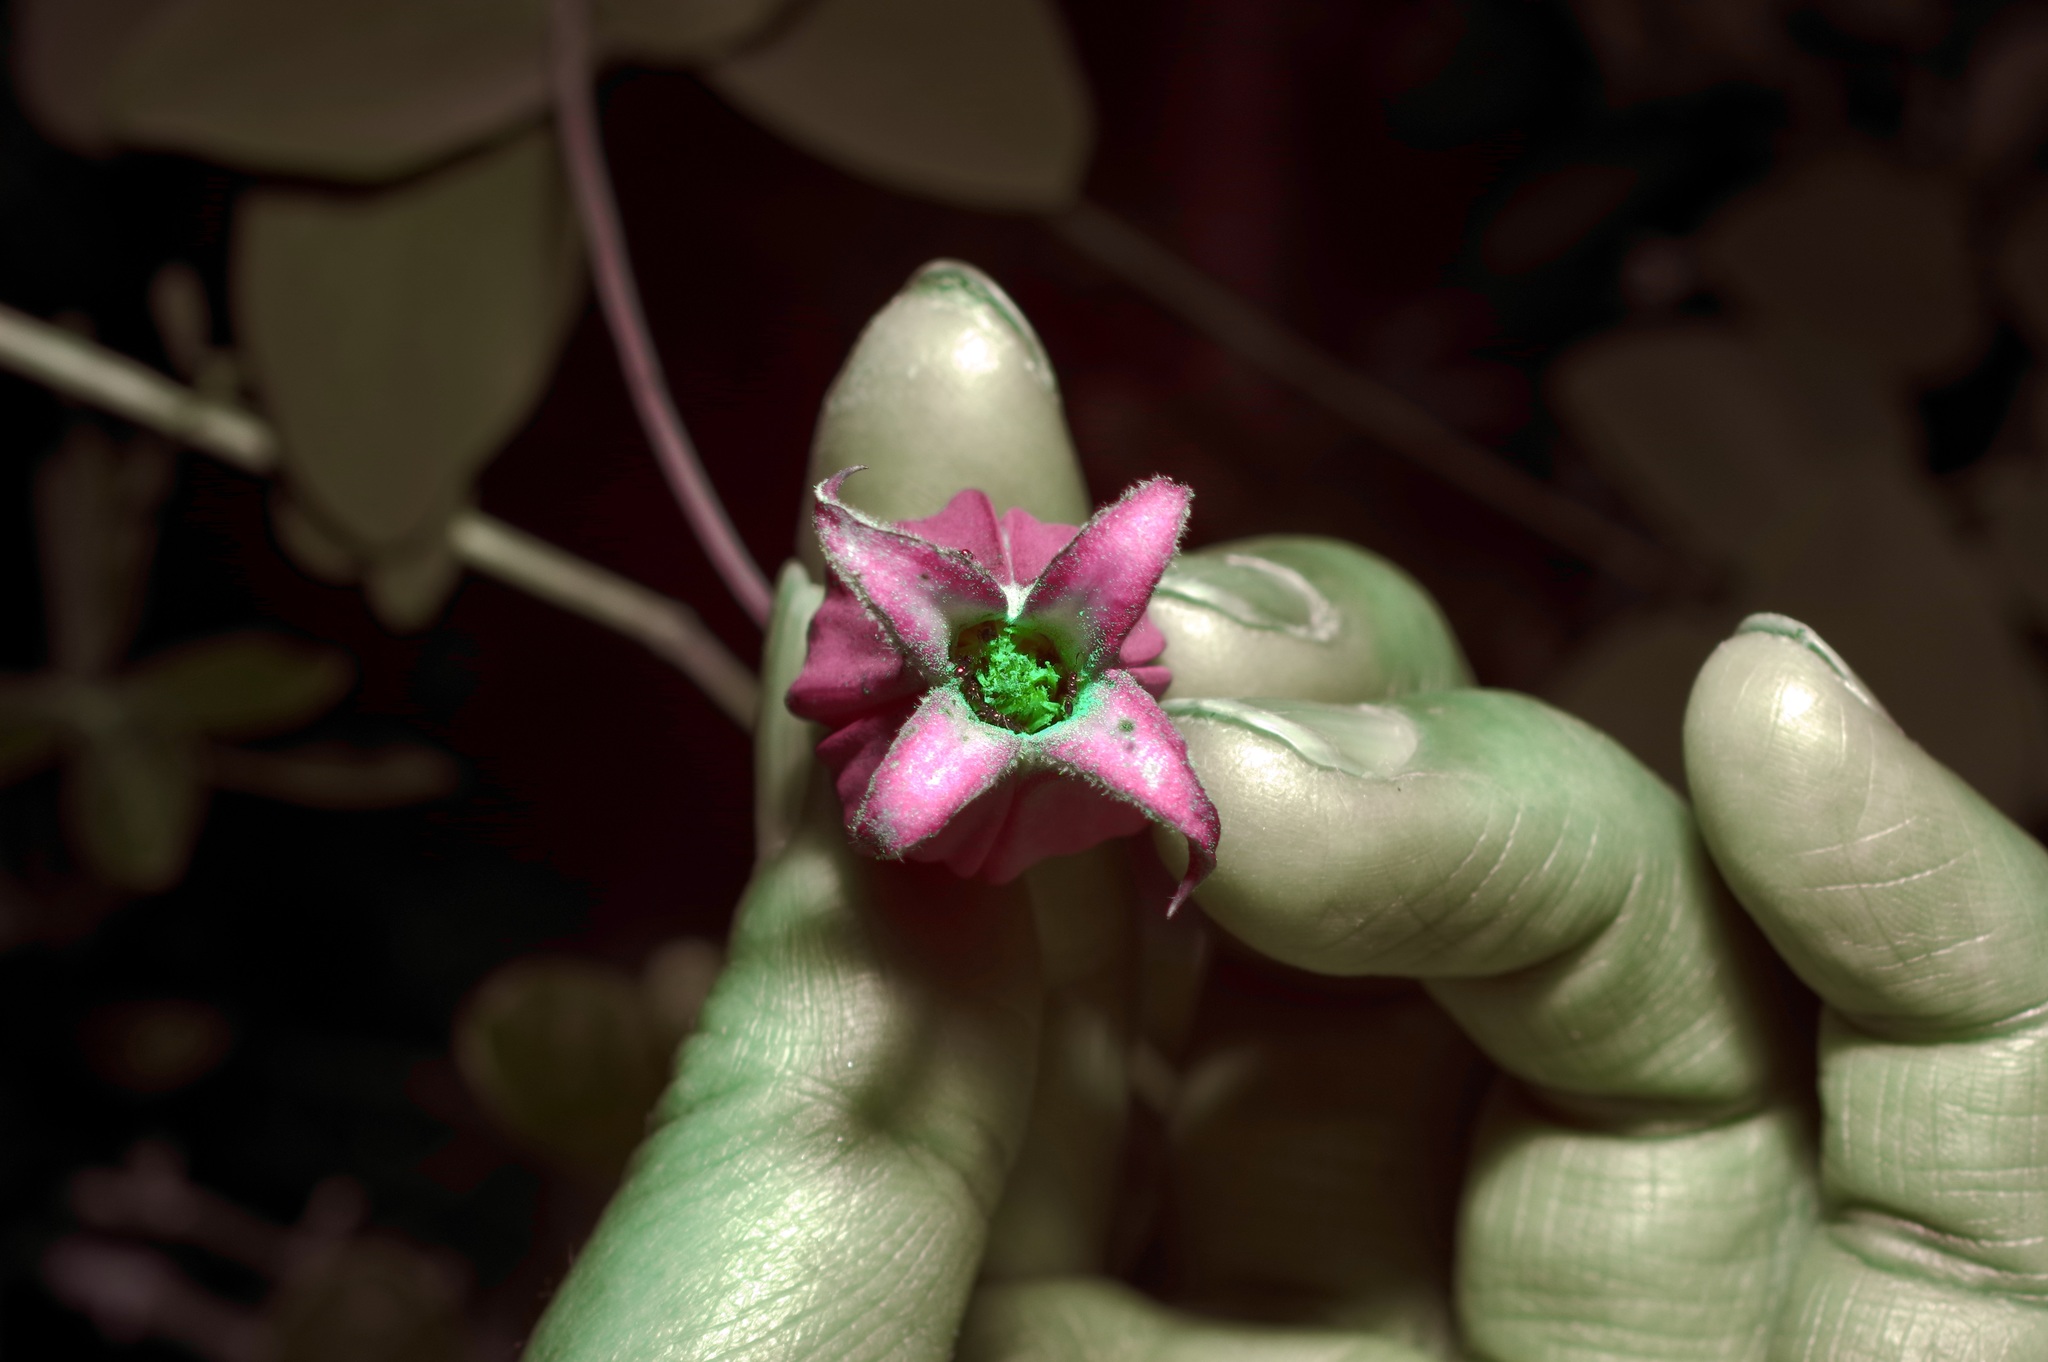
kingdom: Plantae
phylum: Tracheophyta
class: Magnoliopsida
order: Ranunculales
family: Ranunculaceae
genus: Clematis
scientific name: Clematis texensis
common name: Crimson clematis
